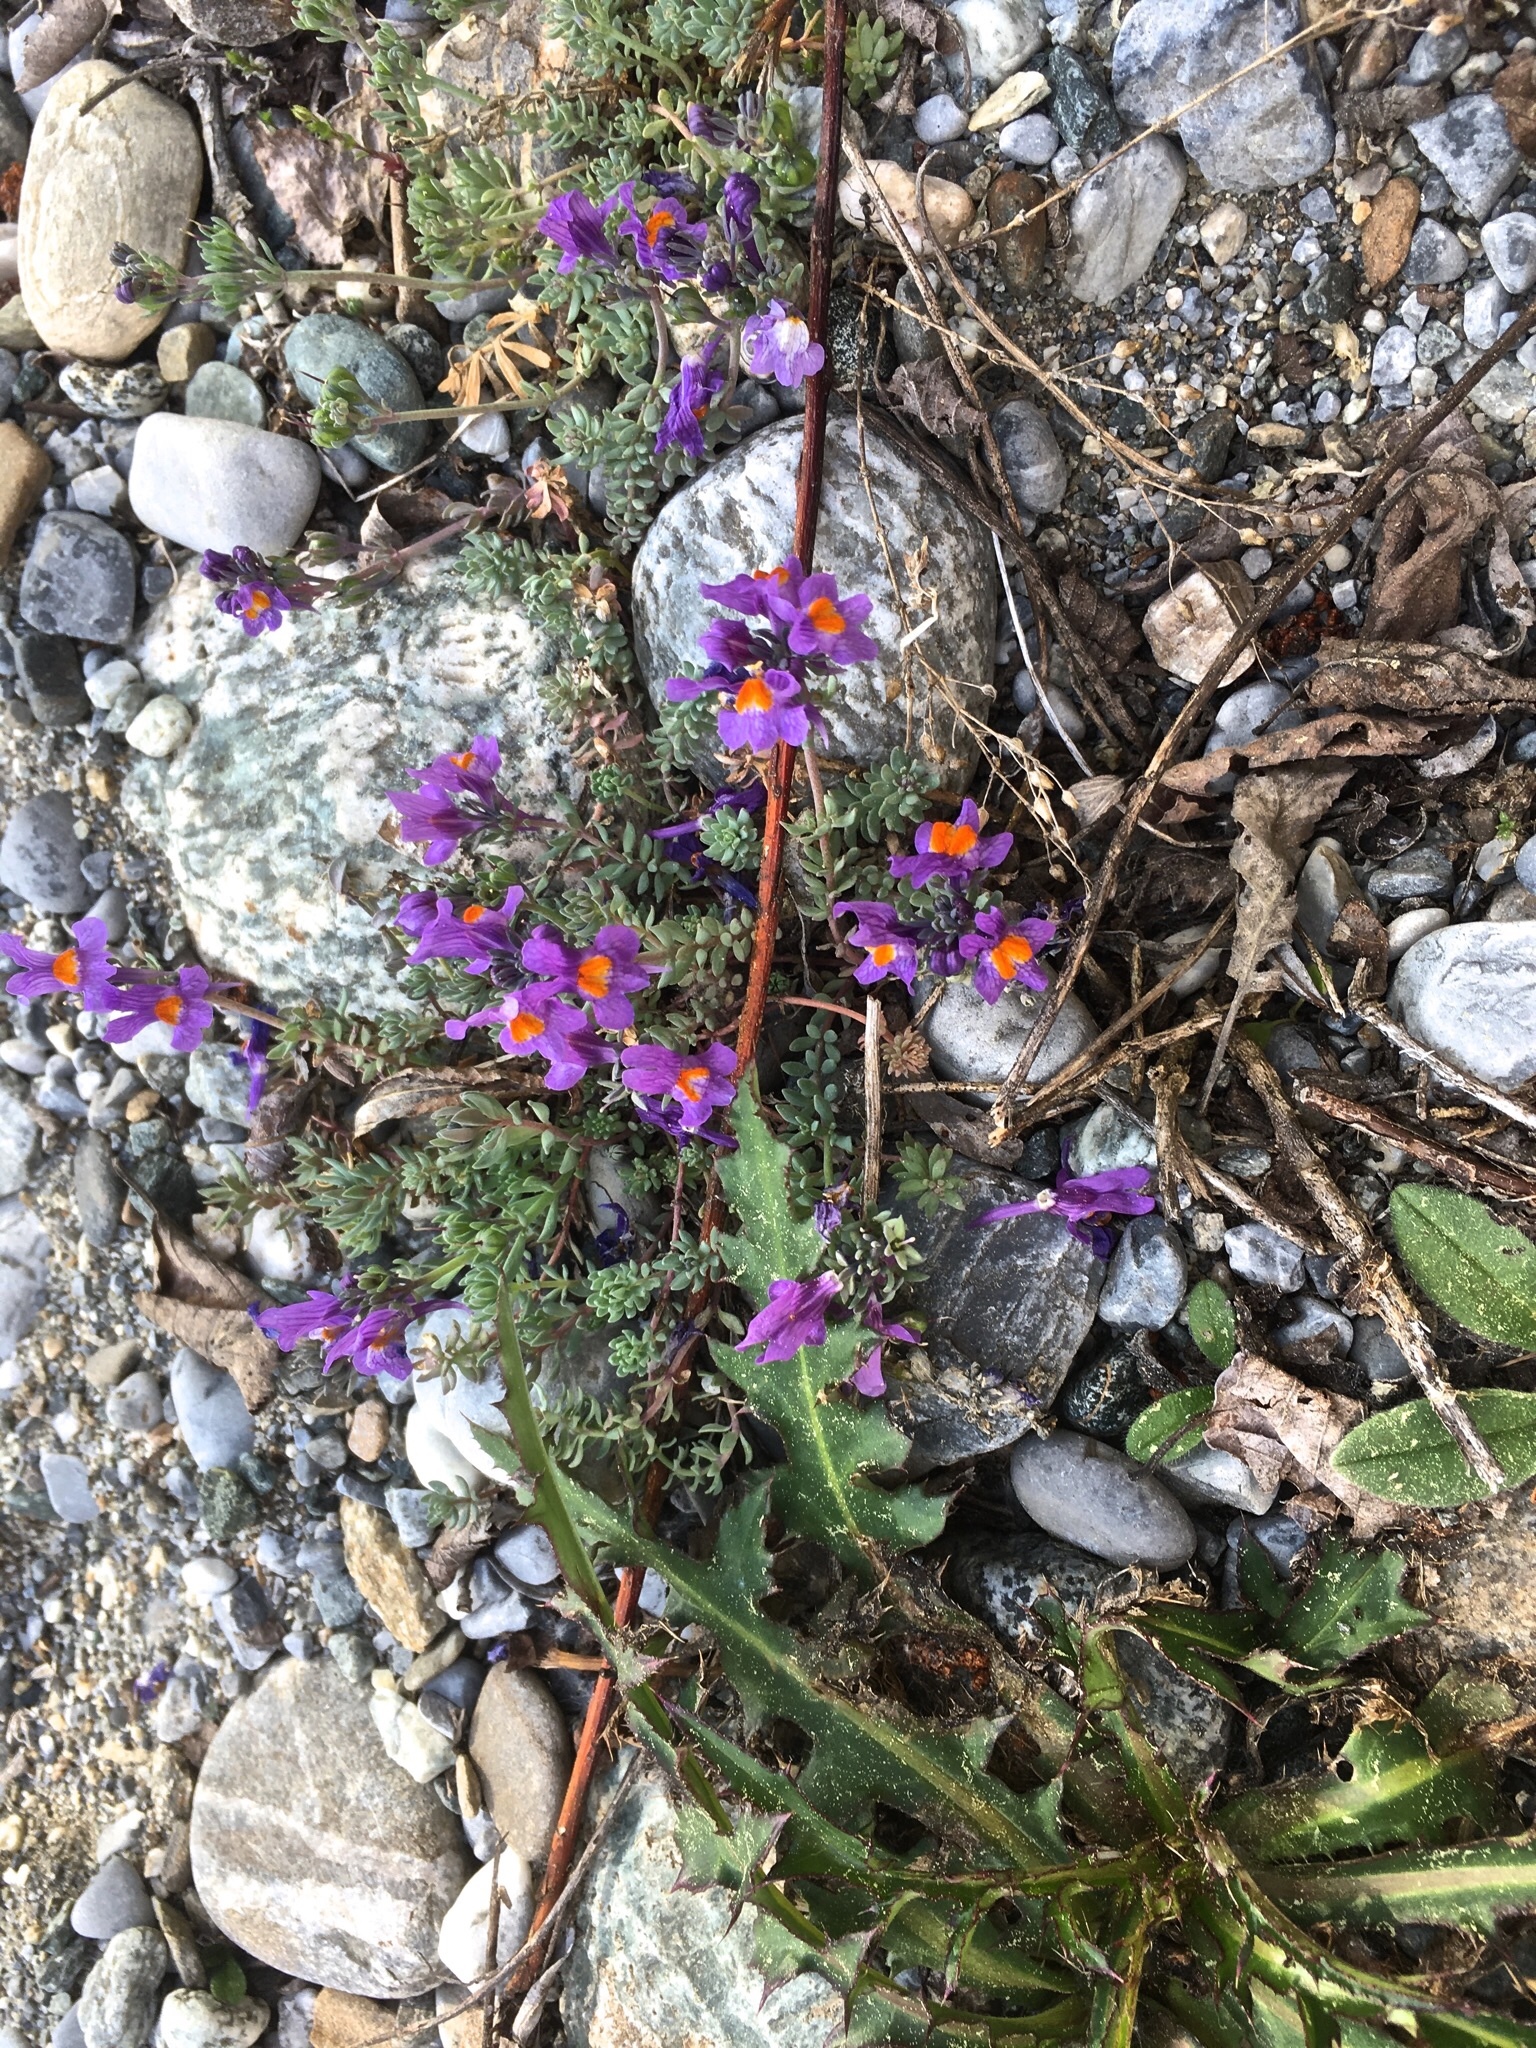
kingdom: Plantae
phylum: Tracheophyta
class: Magnoliopsida
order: Lamiales
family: Plantaginaceae
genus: Linaria
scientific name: Linaria alpina
